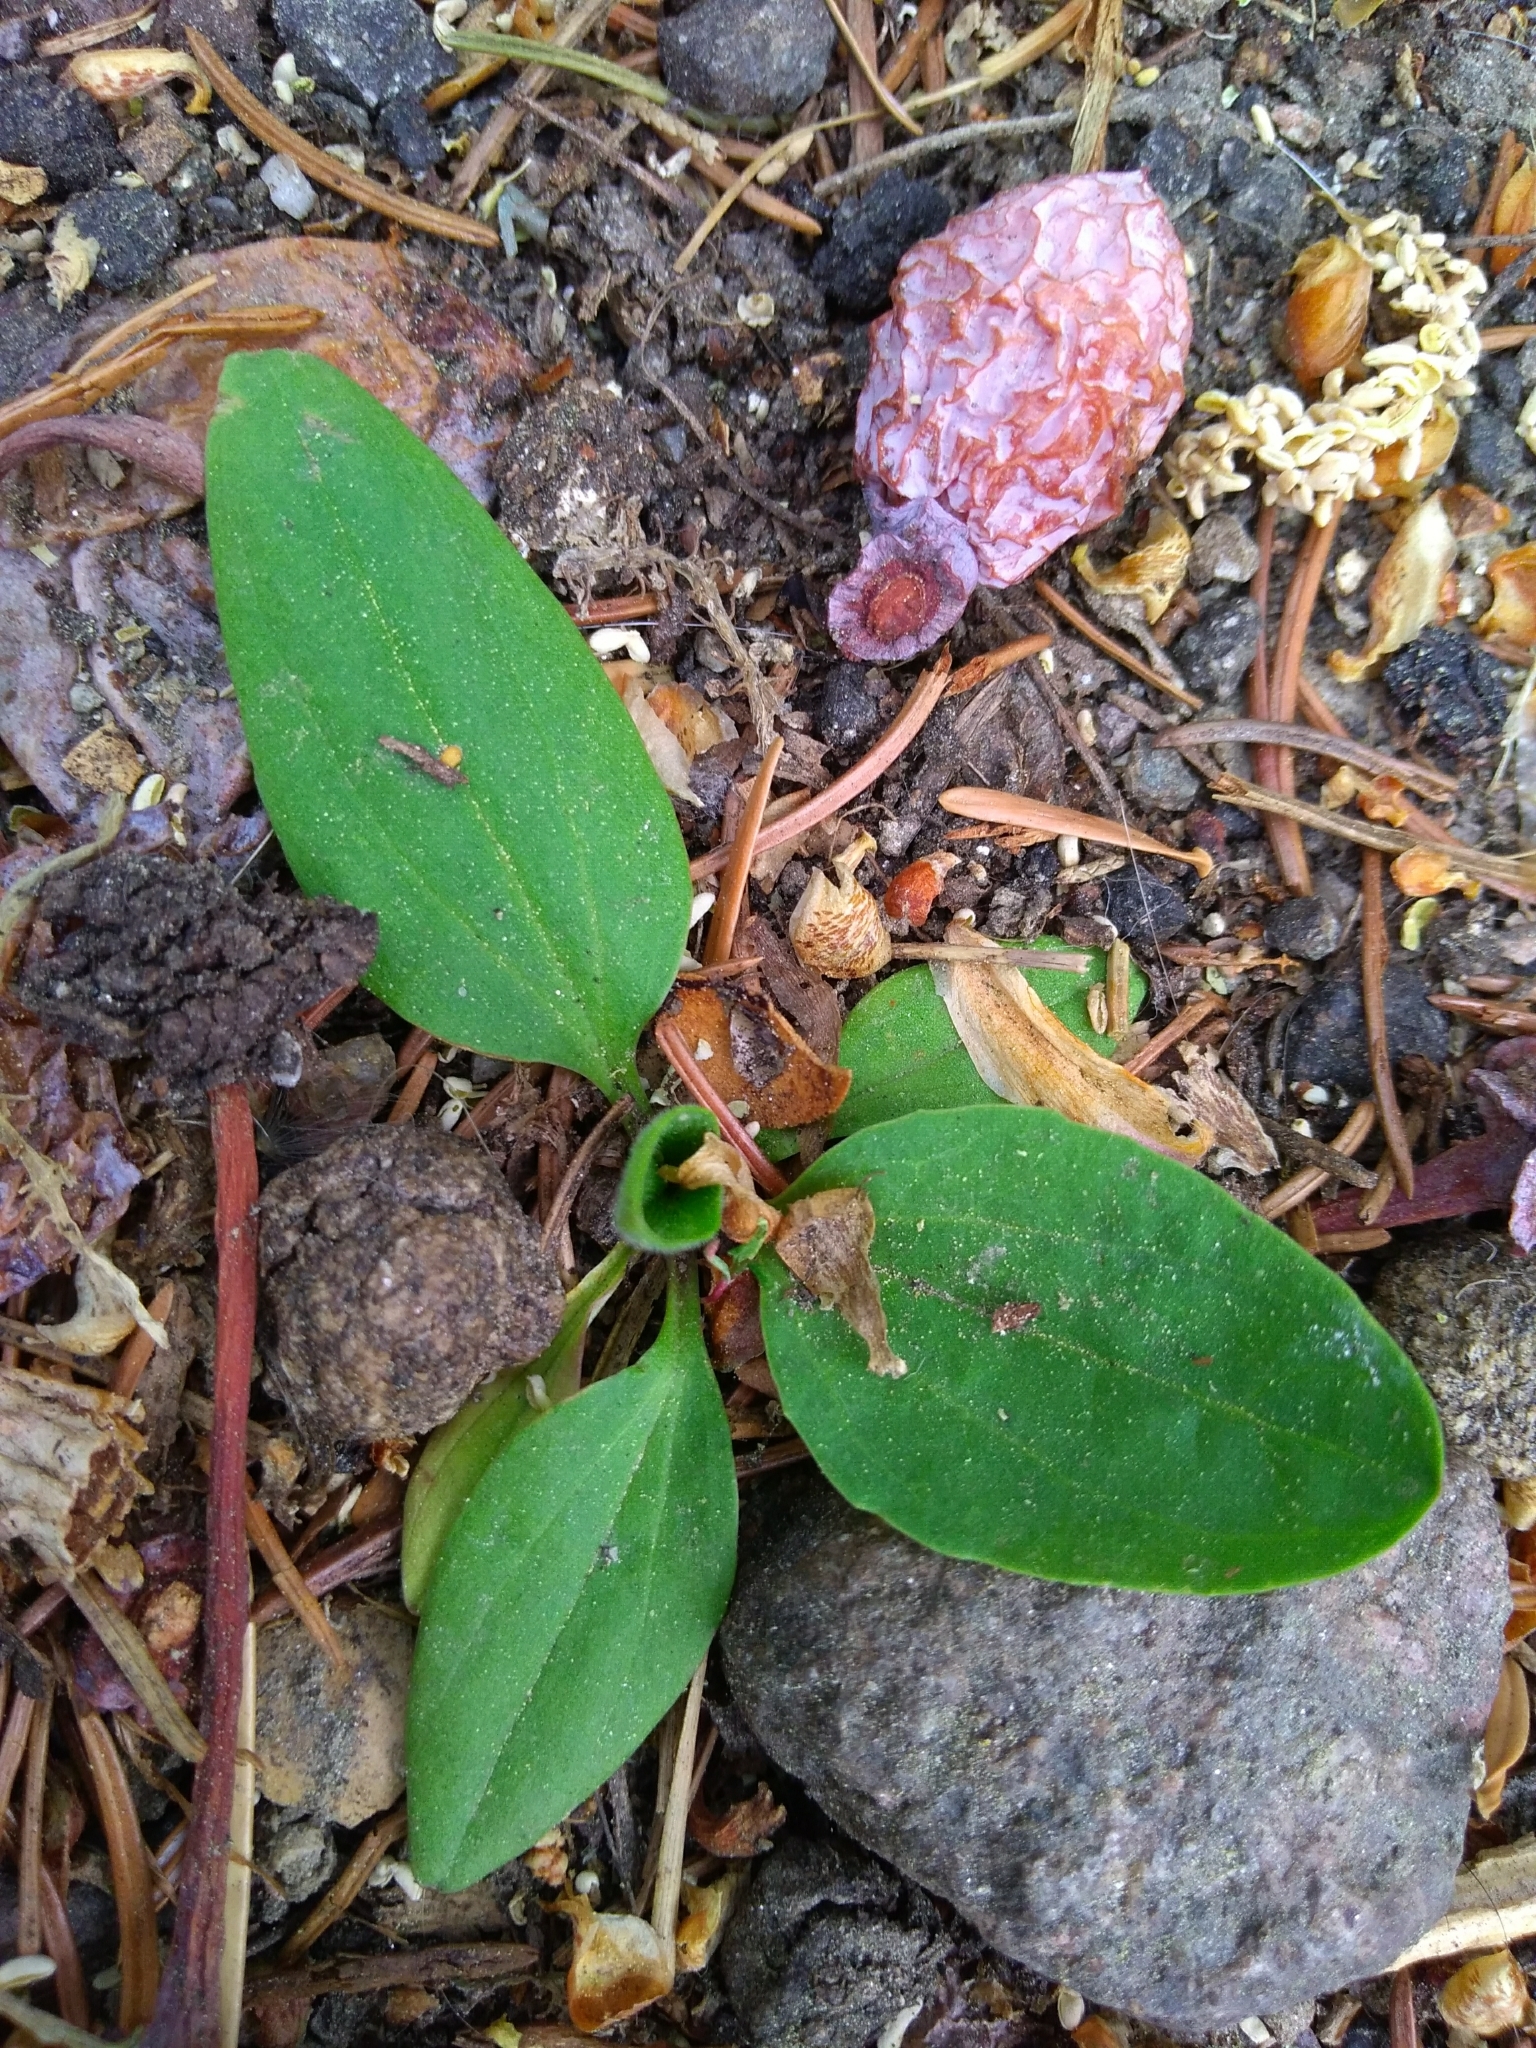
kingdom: Plantae
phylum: Tracheophyta
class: Magnoliopsida
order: Lamiales
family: Plantaginaceae
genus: Plantago
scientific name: Plantago major
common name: Common plantain
